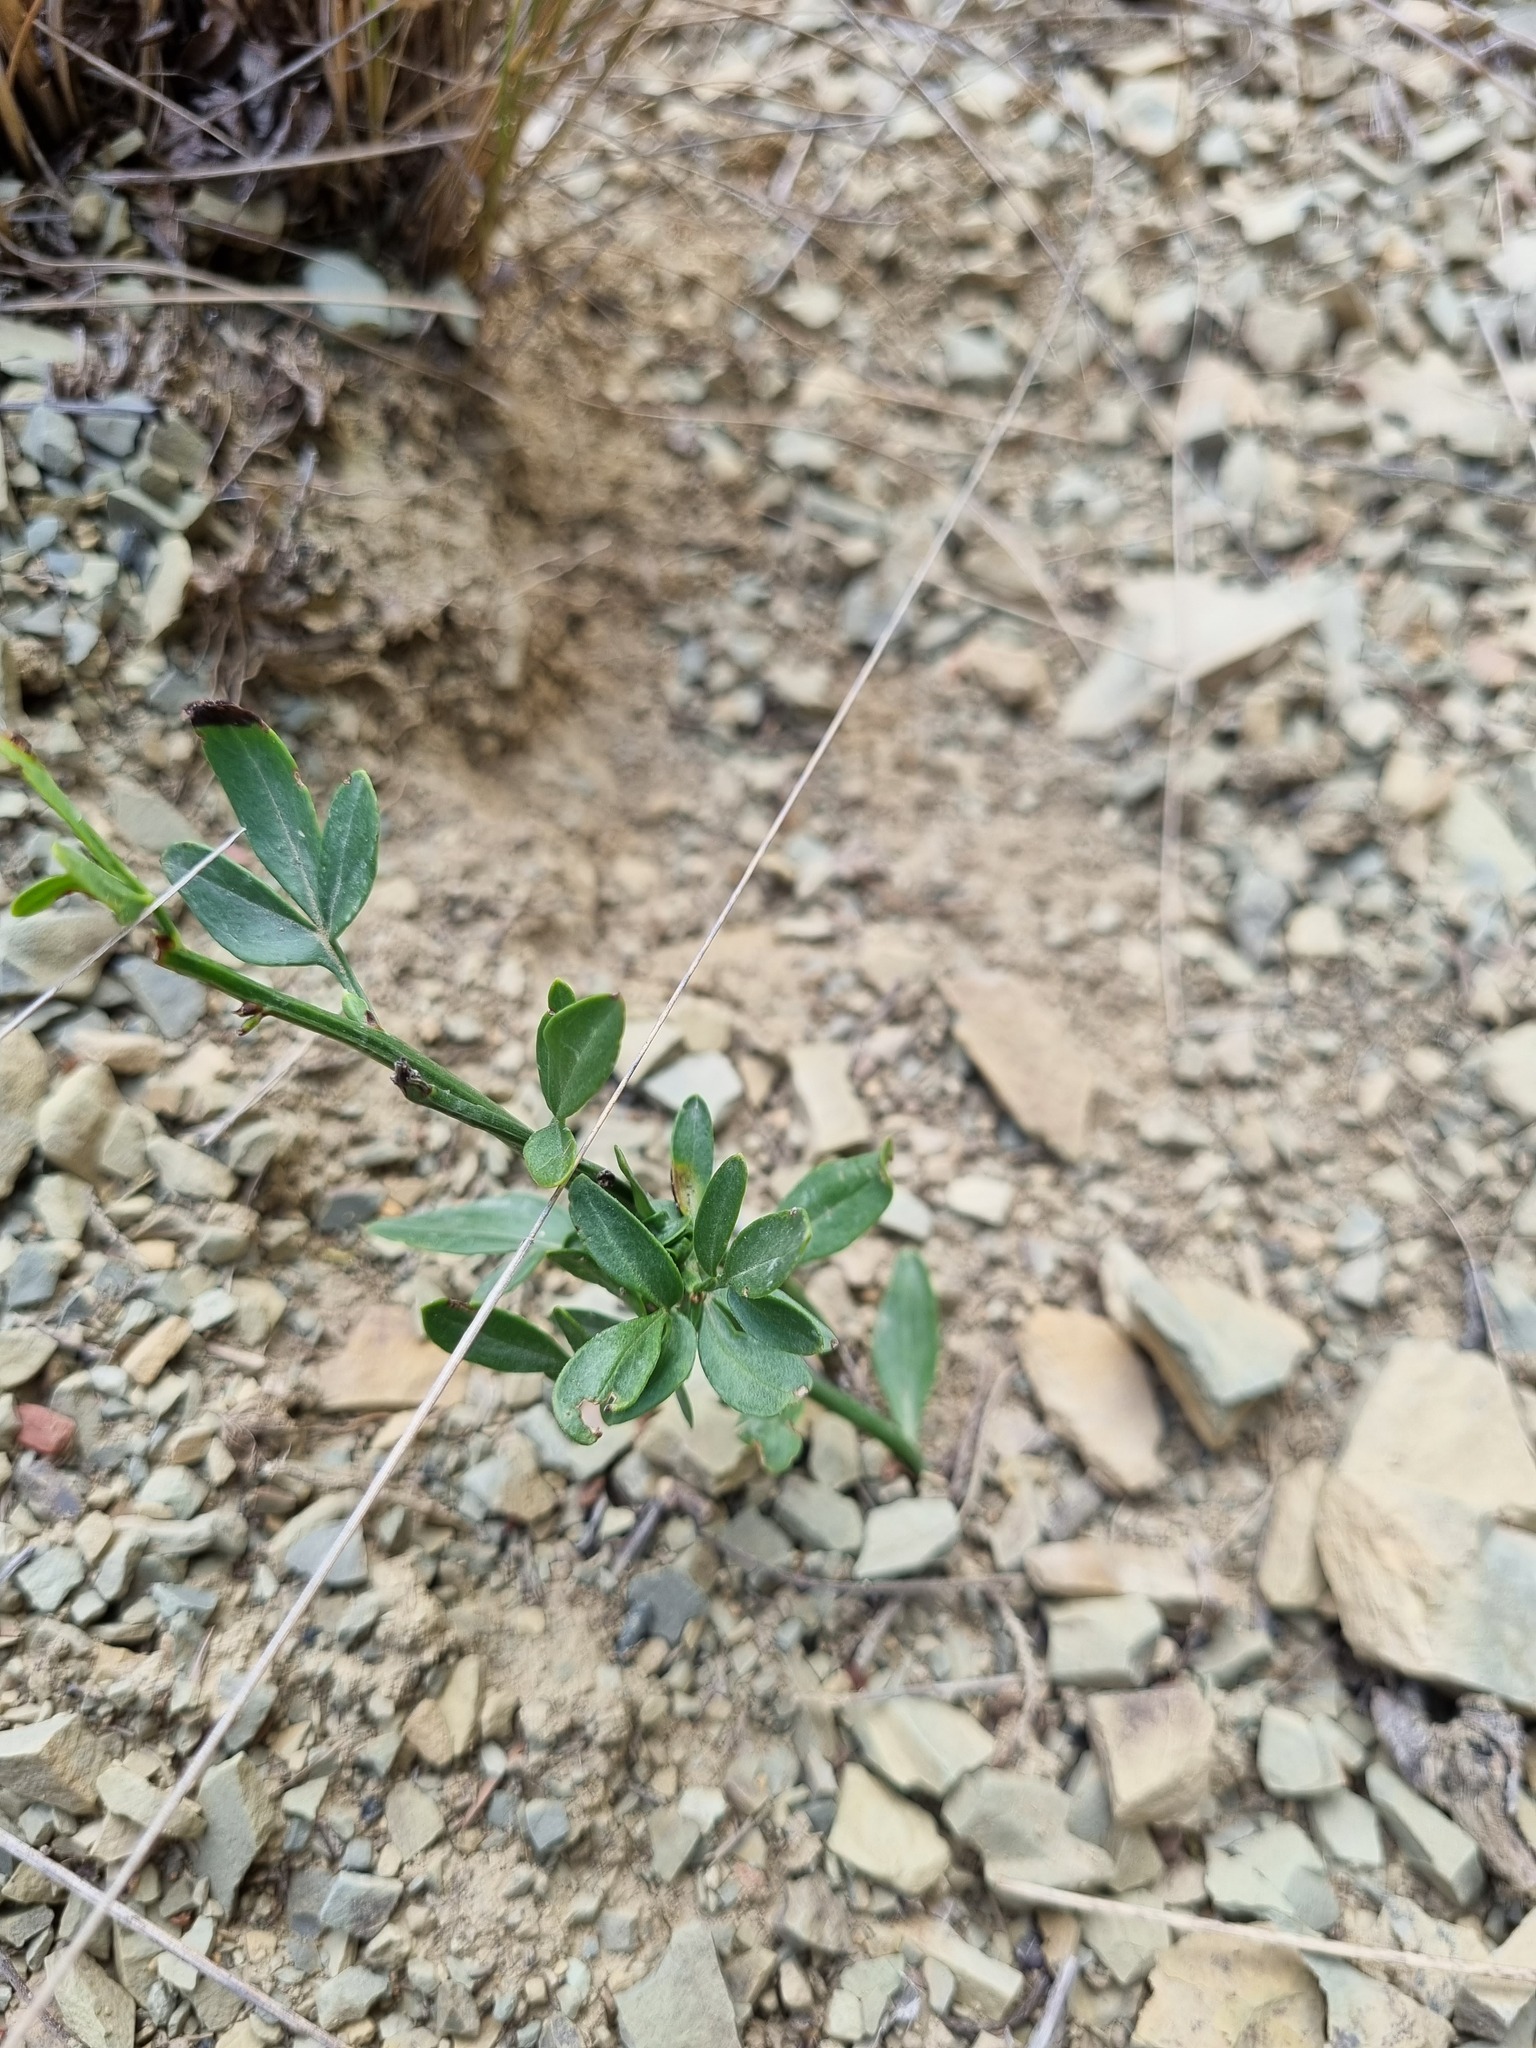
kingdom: Plantae
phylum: Tracheophyta
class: Magnoliopsida
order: Lamiales
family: Oleaceae
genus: Chrysojasminum
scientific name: Chrysojasminum fruticans
